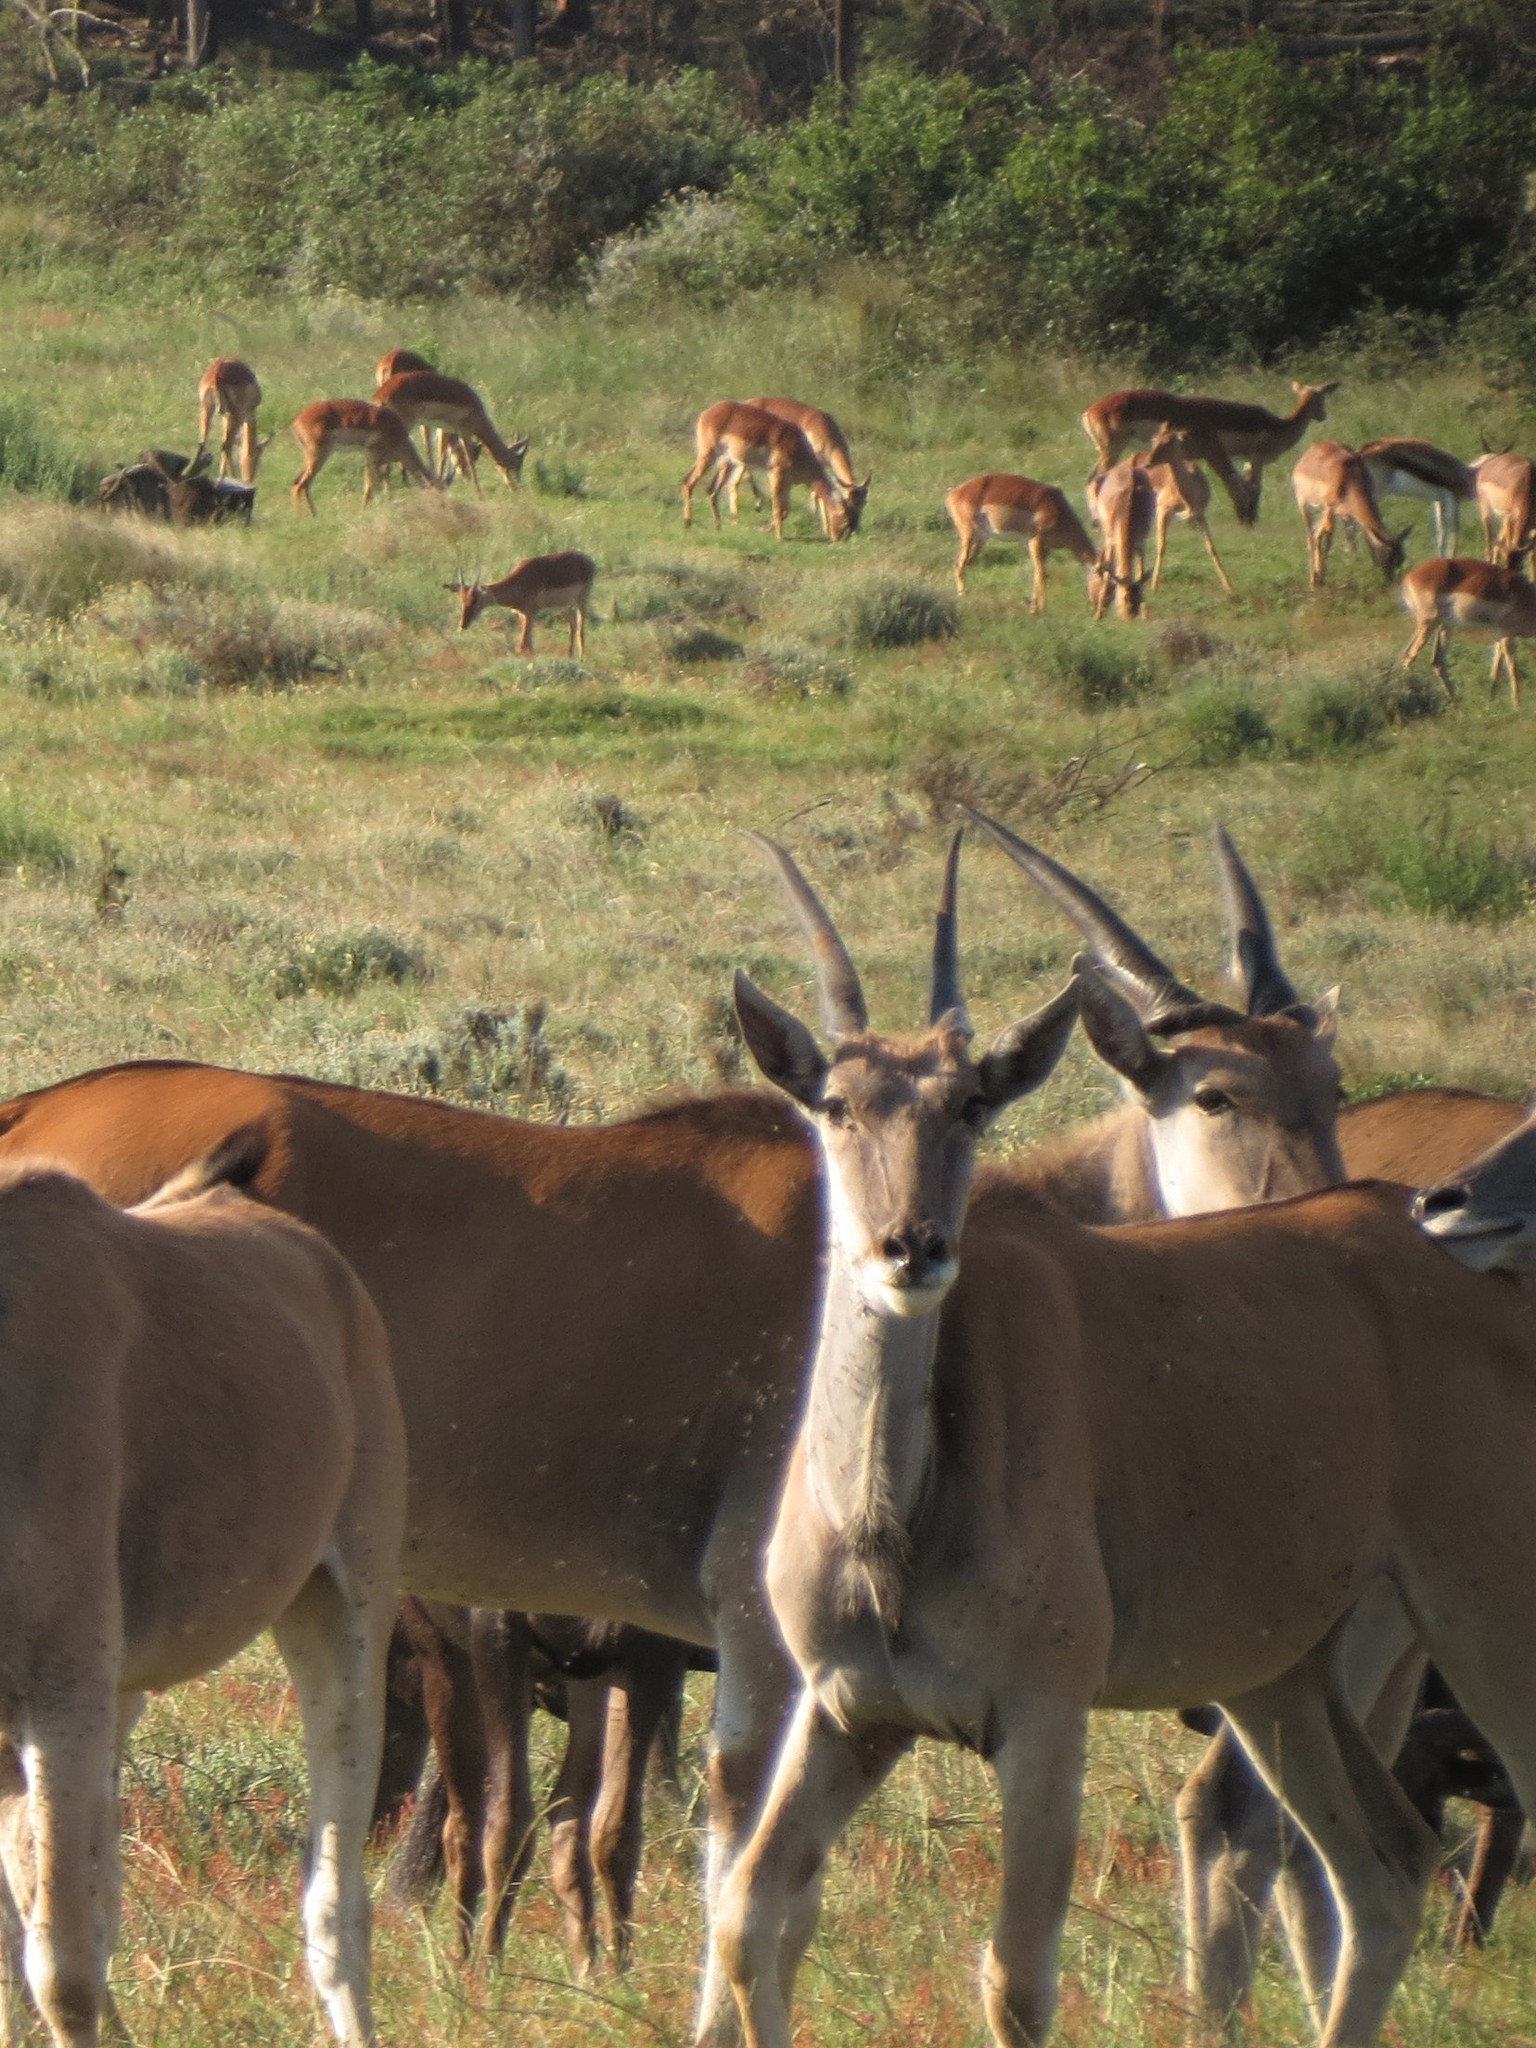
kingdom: Animalia
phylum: Chordata
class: Mammalia
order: Artiodactyla
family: Bovidae
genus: Aepyceros
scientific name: Aepyceros melampus
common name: Impala
